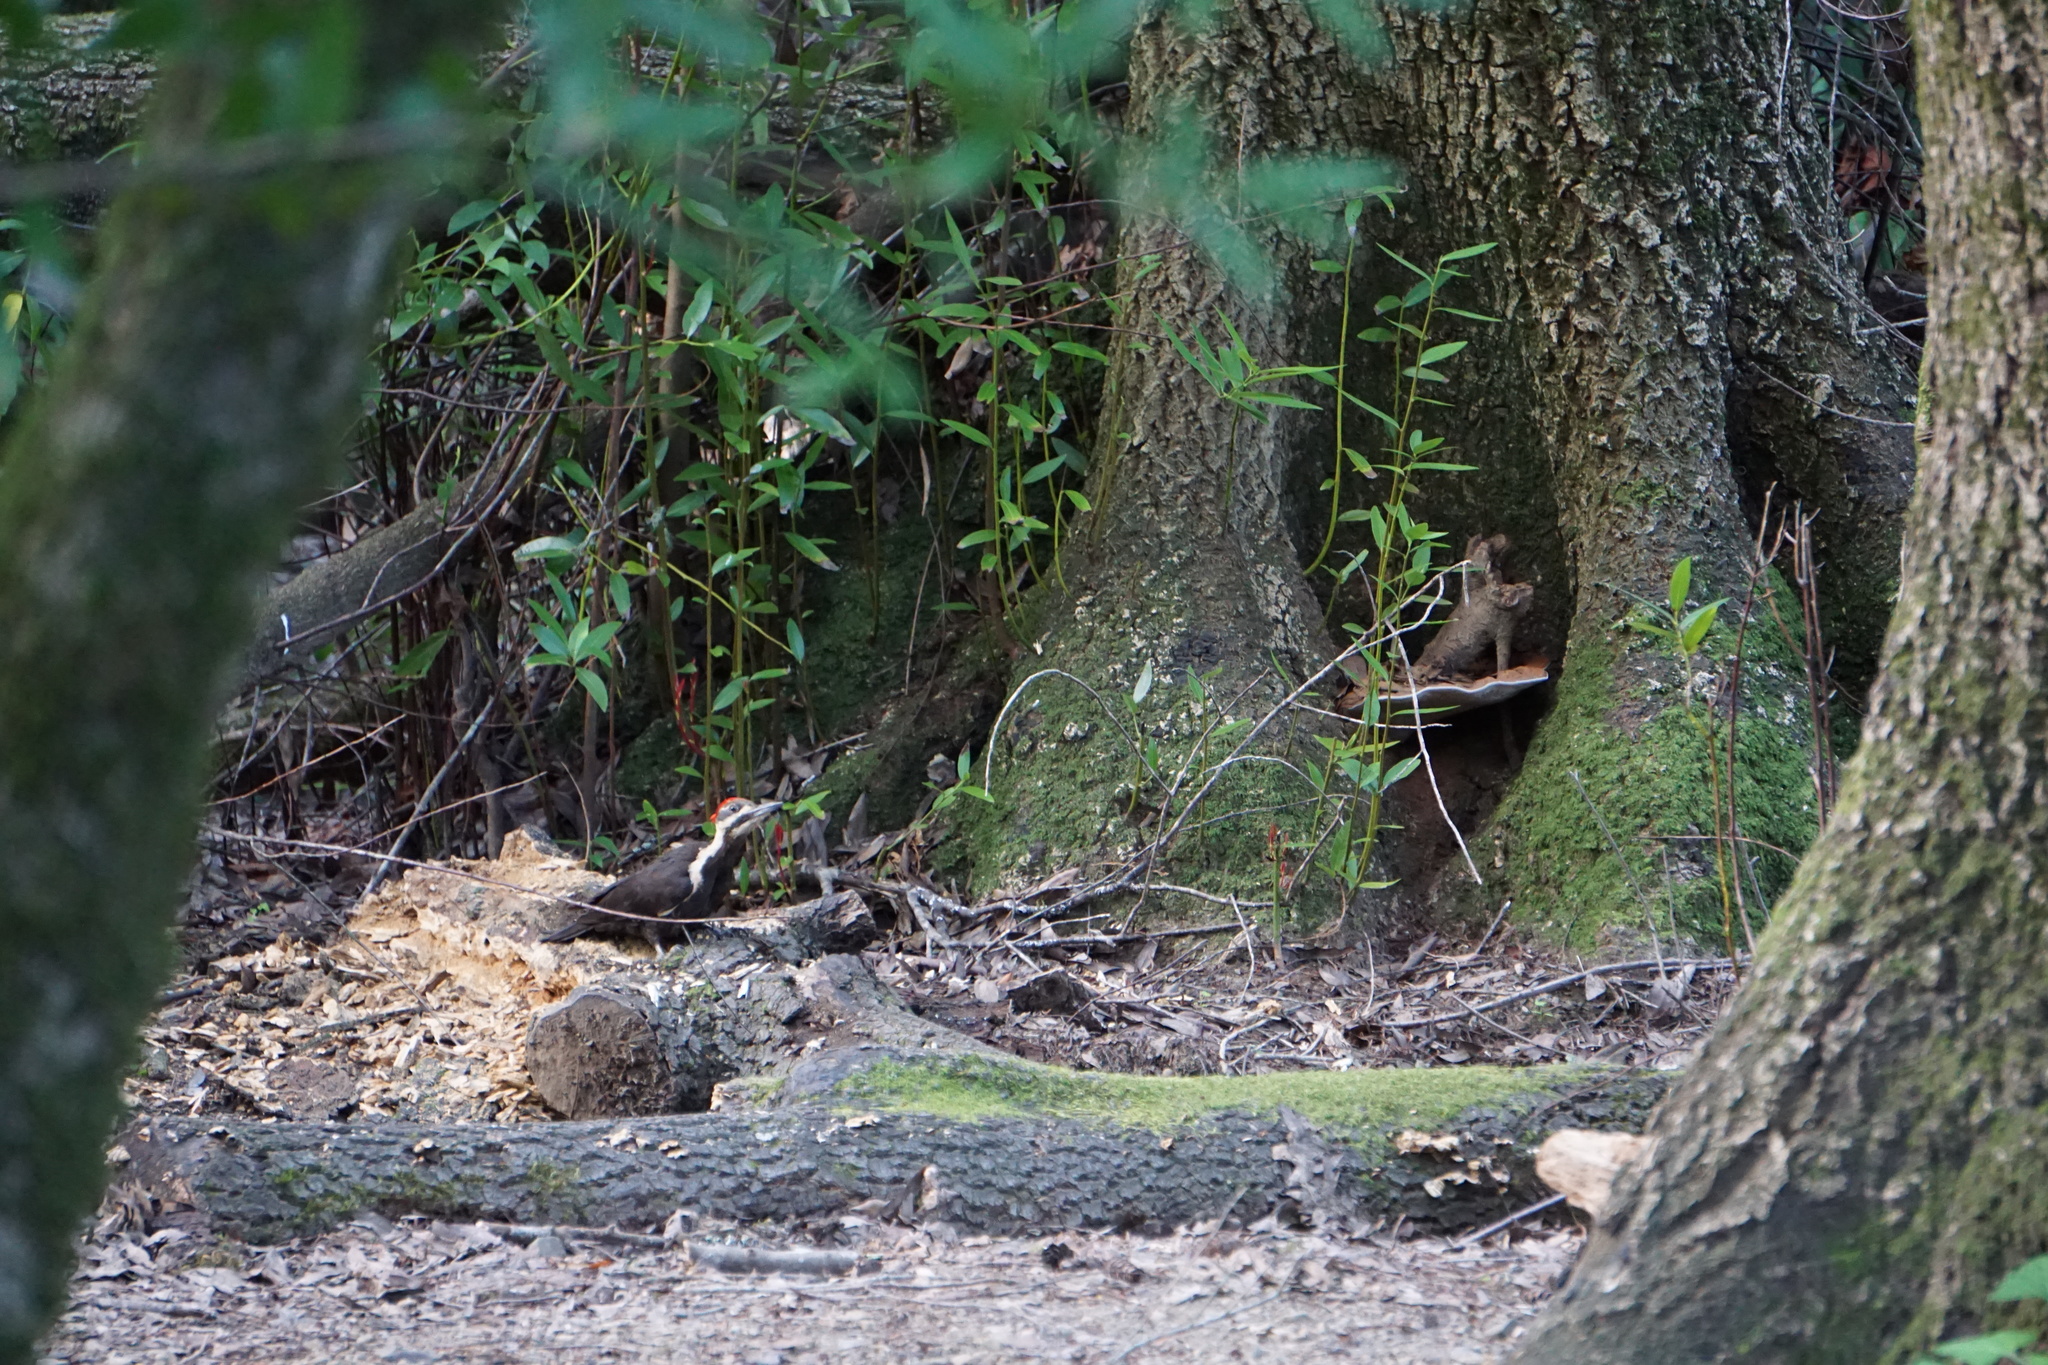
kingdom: Animalia
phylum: Chordata
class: Aves
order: Piciformes
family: Picidae
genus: Dryocopus
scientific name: Dryocopus pileatus
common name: Pileated woodpecker
